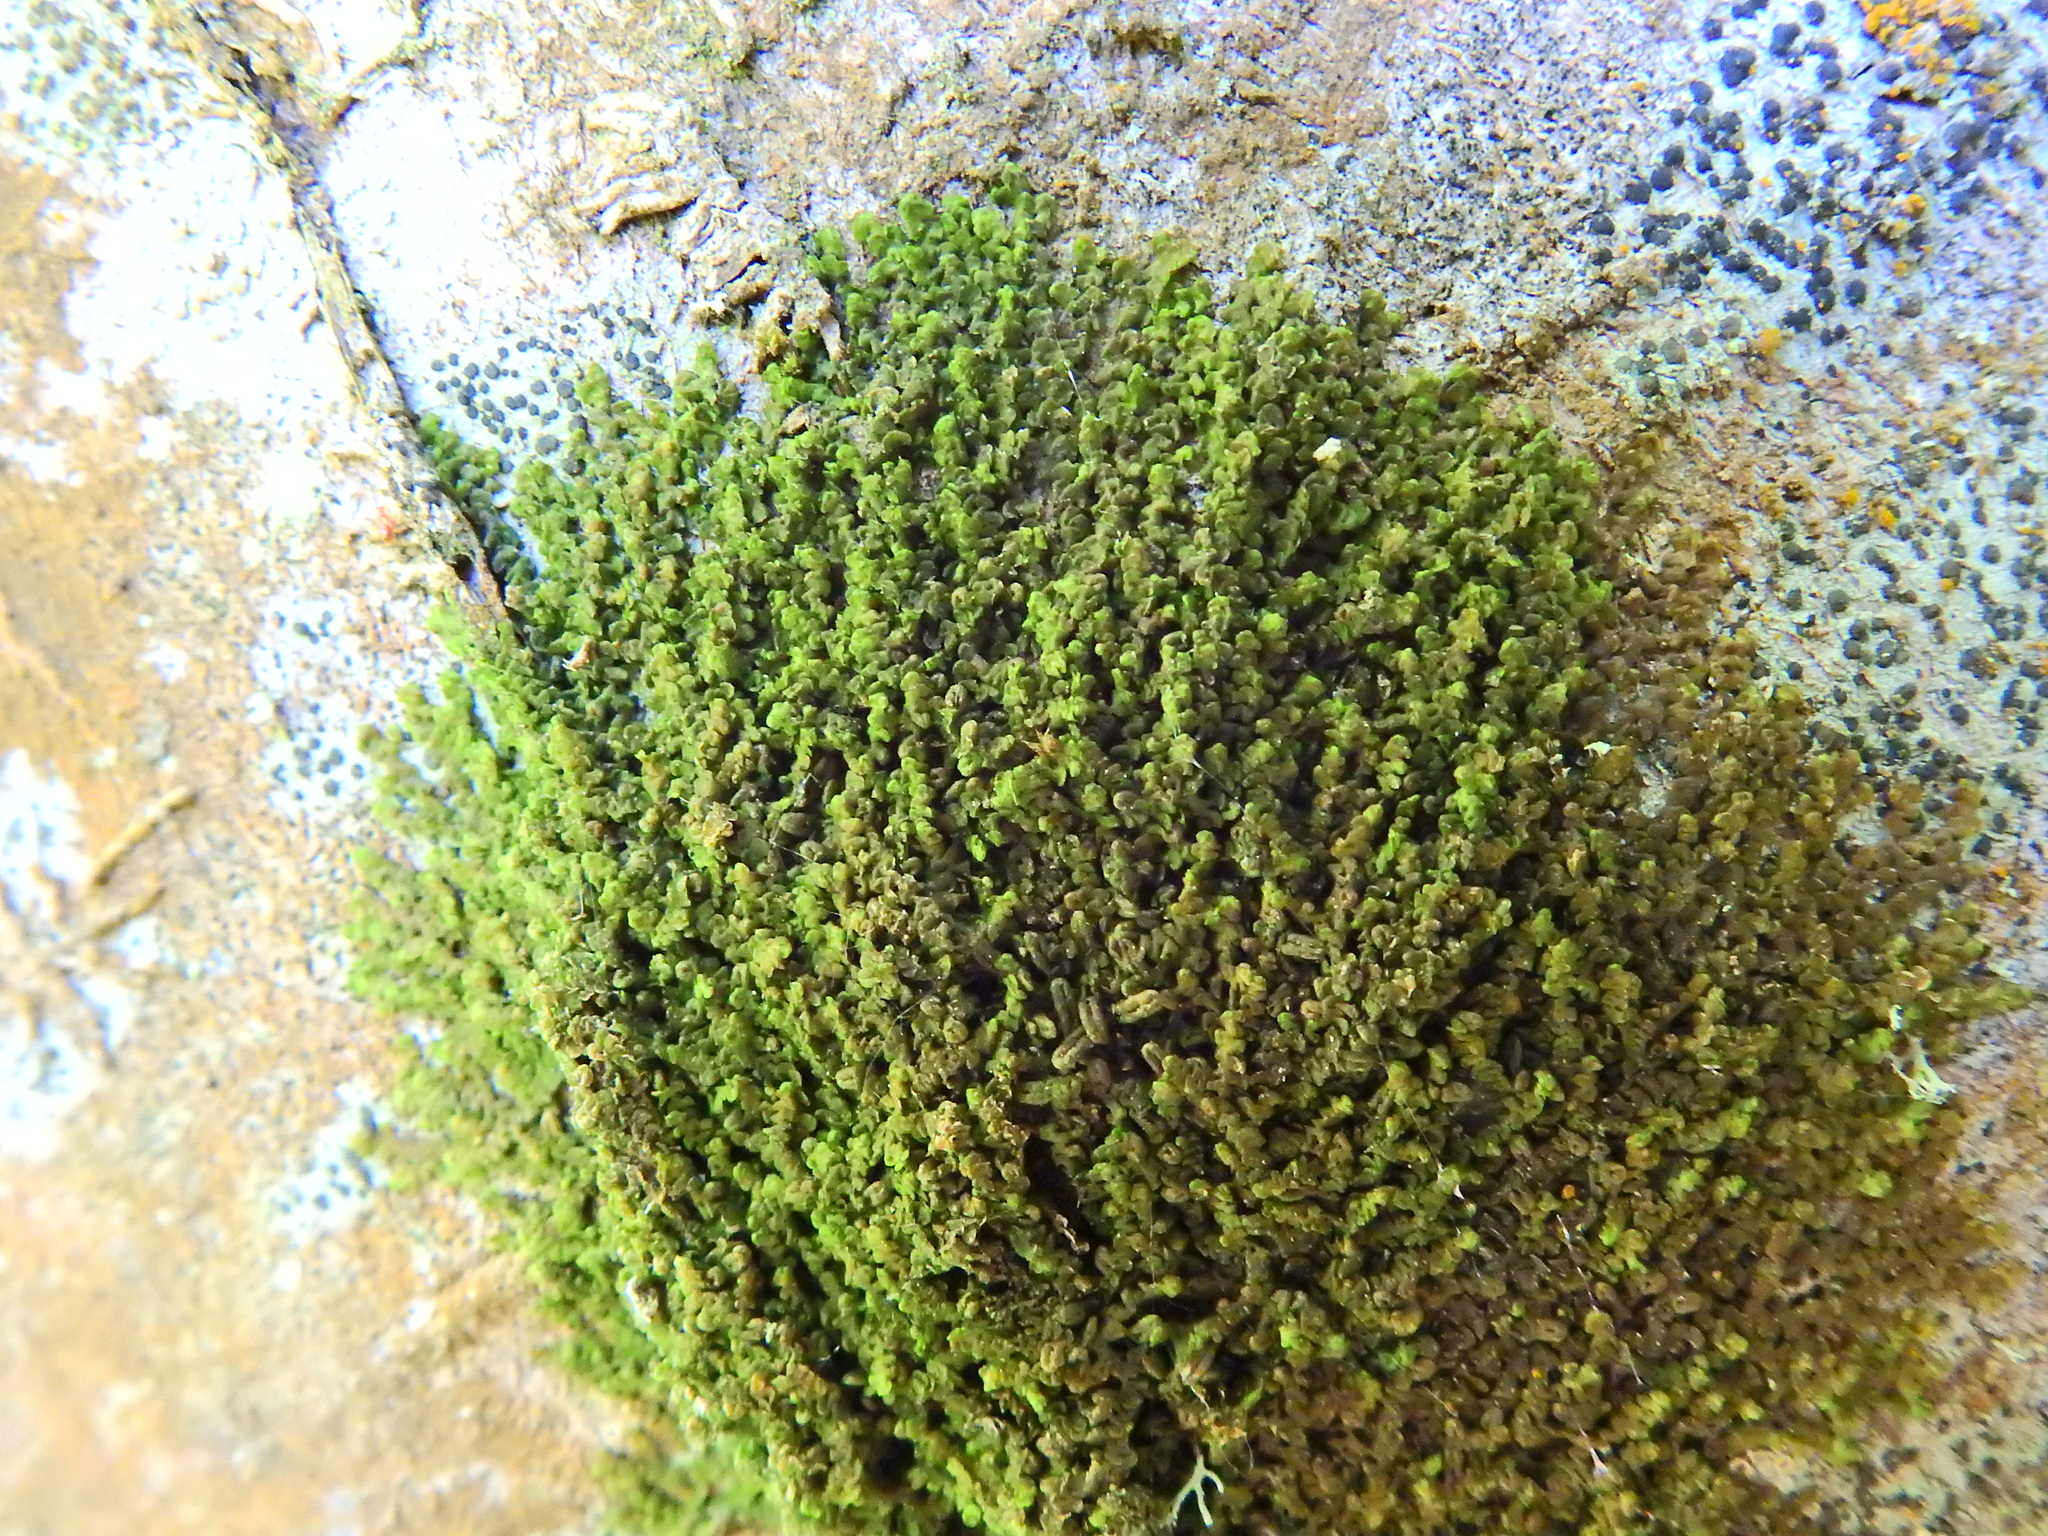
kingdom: Plantae
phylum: Marchantiophyta
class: Jungermanniopsida
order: Porellales
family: Frullaniaceae
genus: Frullania
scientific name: Frullania dilatata
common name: Dilated scalewort
